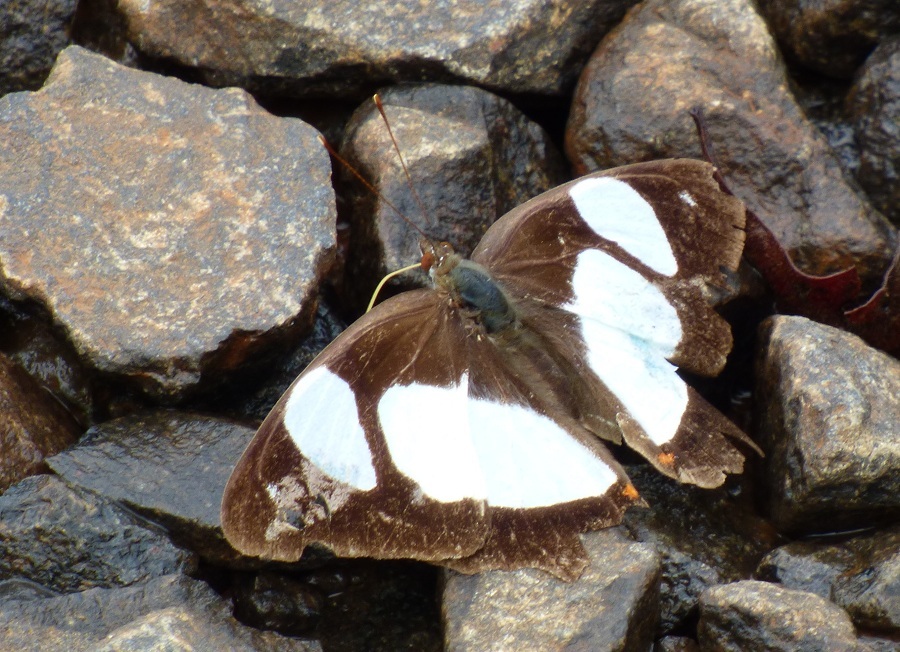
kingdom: Animalia
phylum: Arthropoda
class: Insecta
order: Lepidoptera
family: Nymphalidae
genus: Pyrrhogyra
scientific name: Pyrrhogyra neaerea
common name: Leading red-ring
